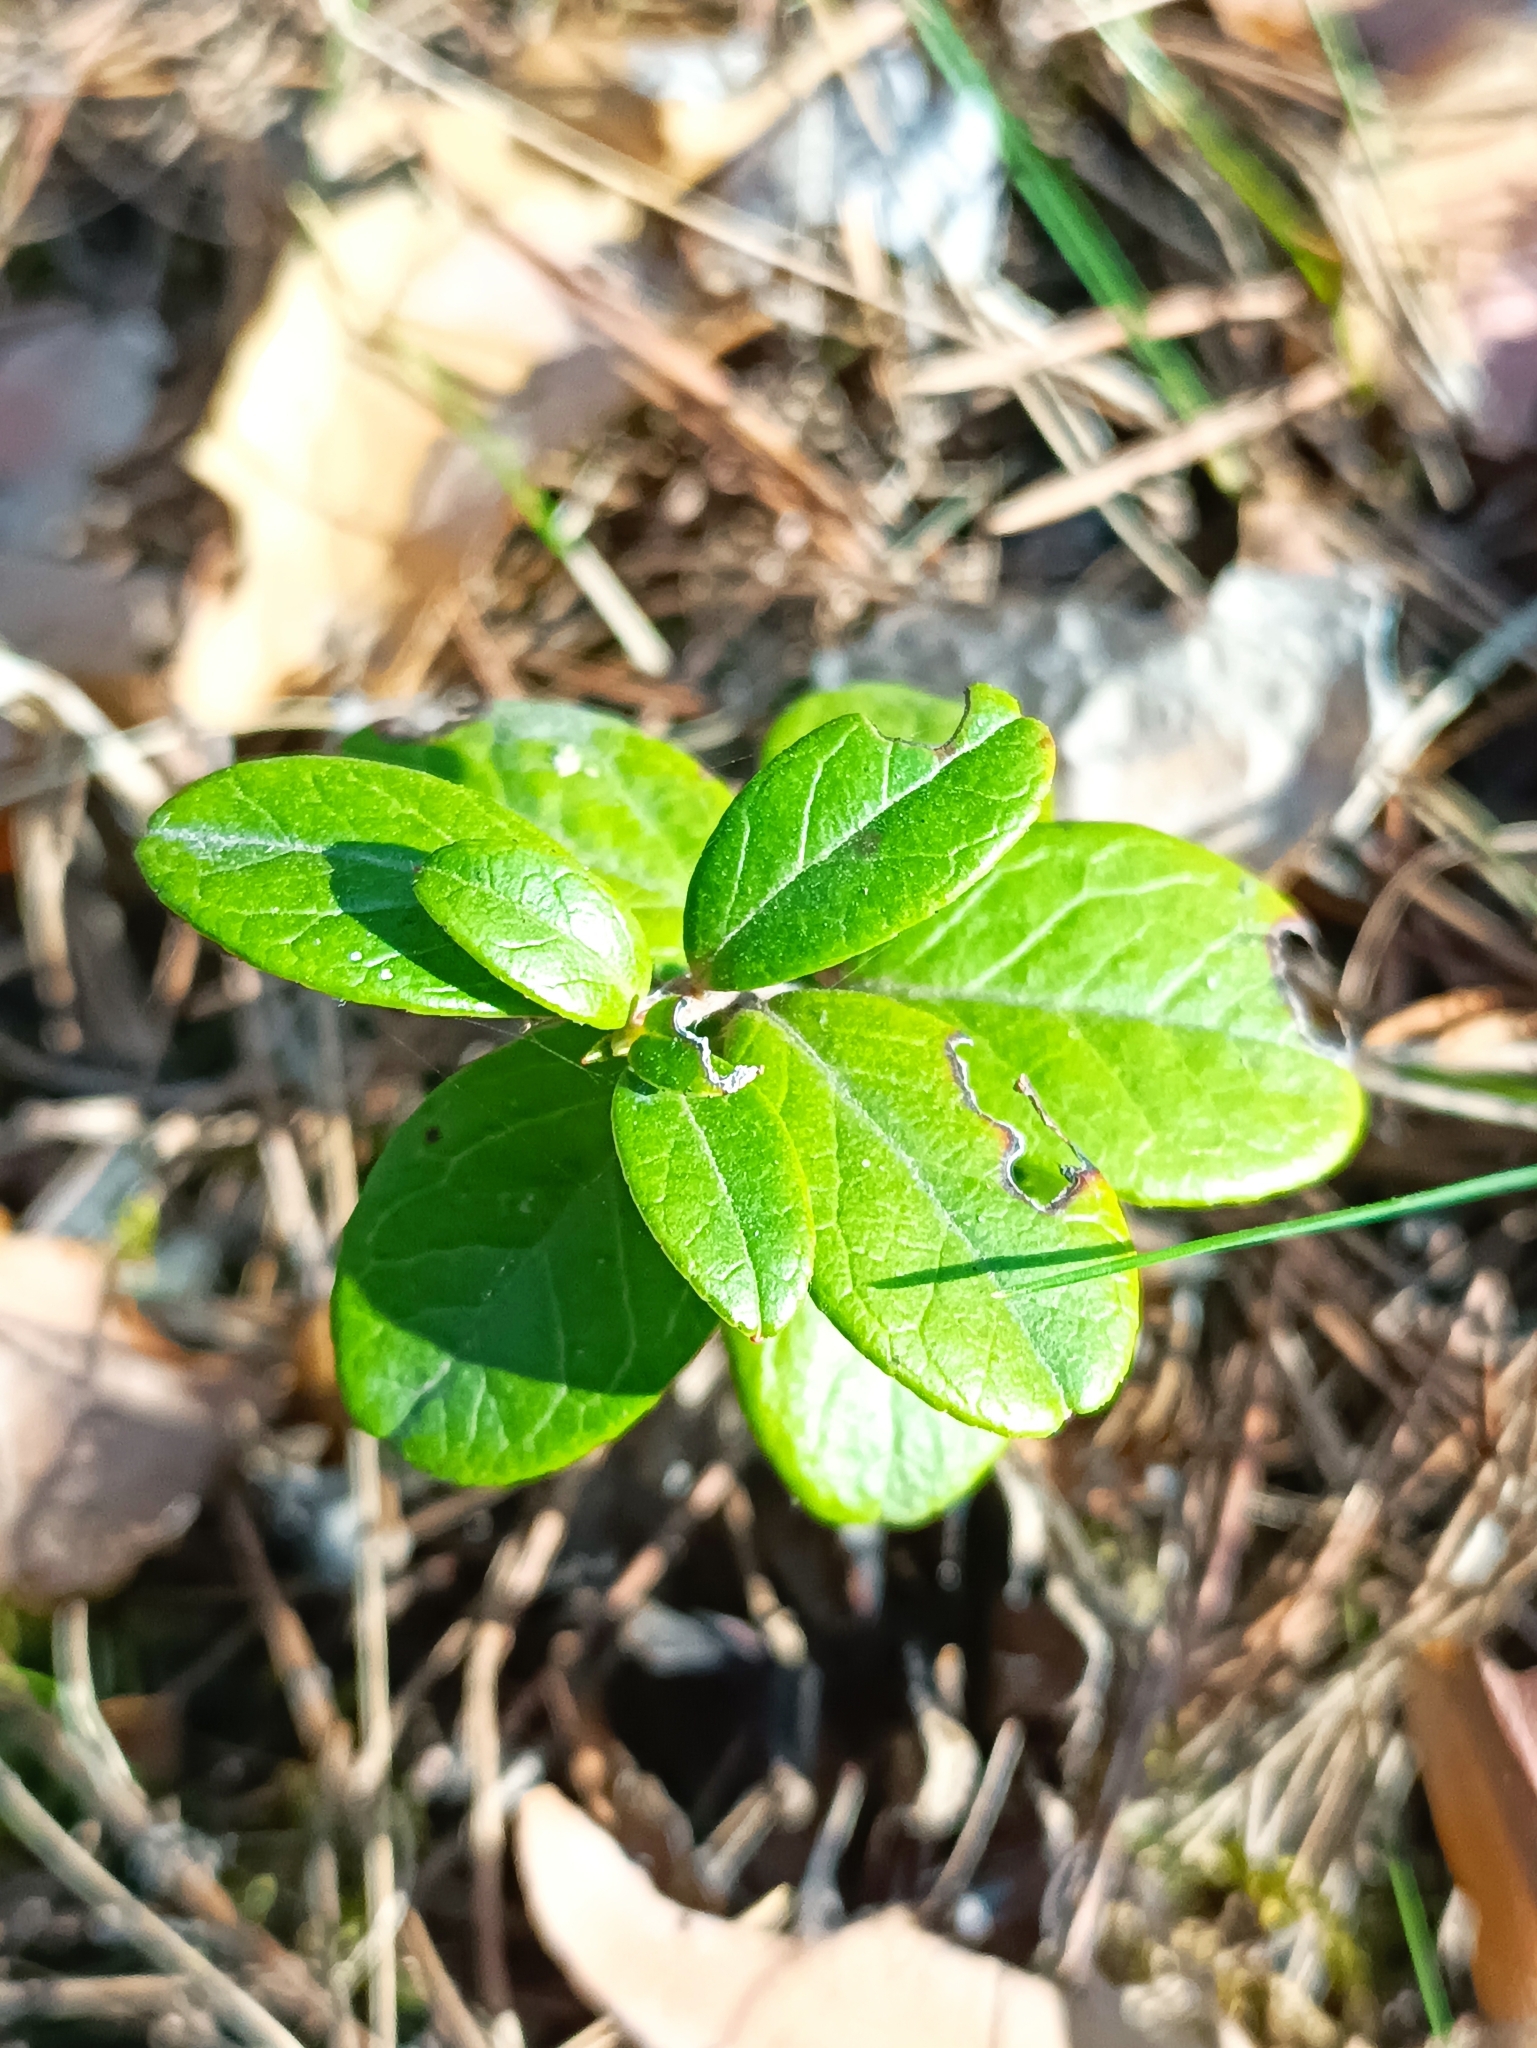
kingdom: Plantae
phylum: Tracheophyta
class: Magnoliopsida
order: Ericales
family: Ericaceae
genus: Vaccinium
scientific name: Vaccinium vitis-idaea
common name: Cowberry
